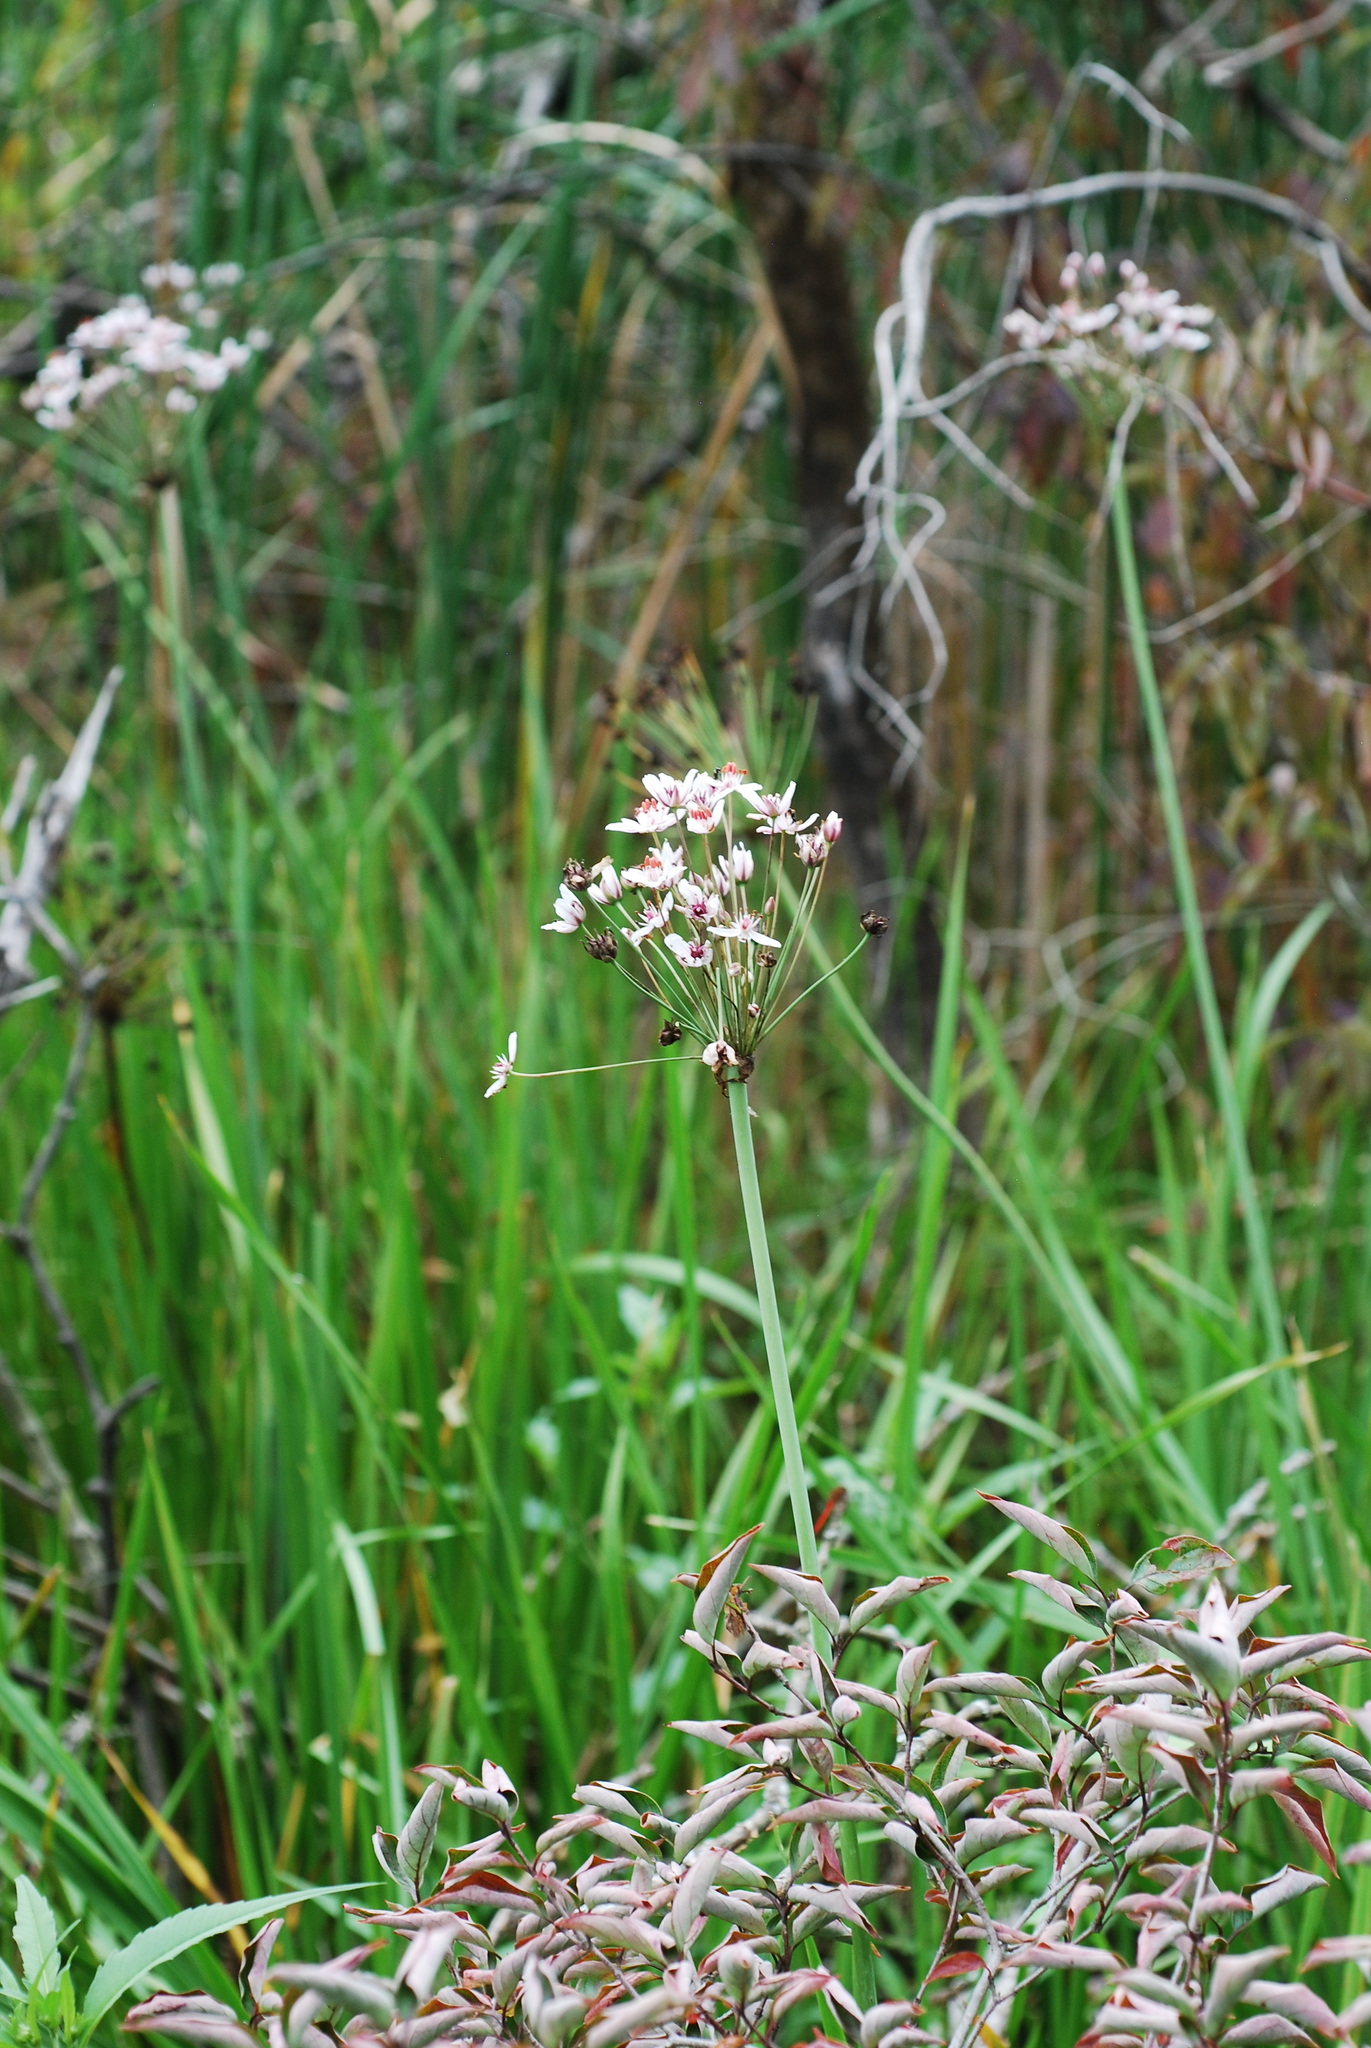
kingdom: Plantae
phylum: Tracheophyta
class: Liliopsida
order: Alismatales
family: Butomaceae
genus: Butomus
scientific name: Butomus umbellatus
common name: Flowering-rush
